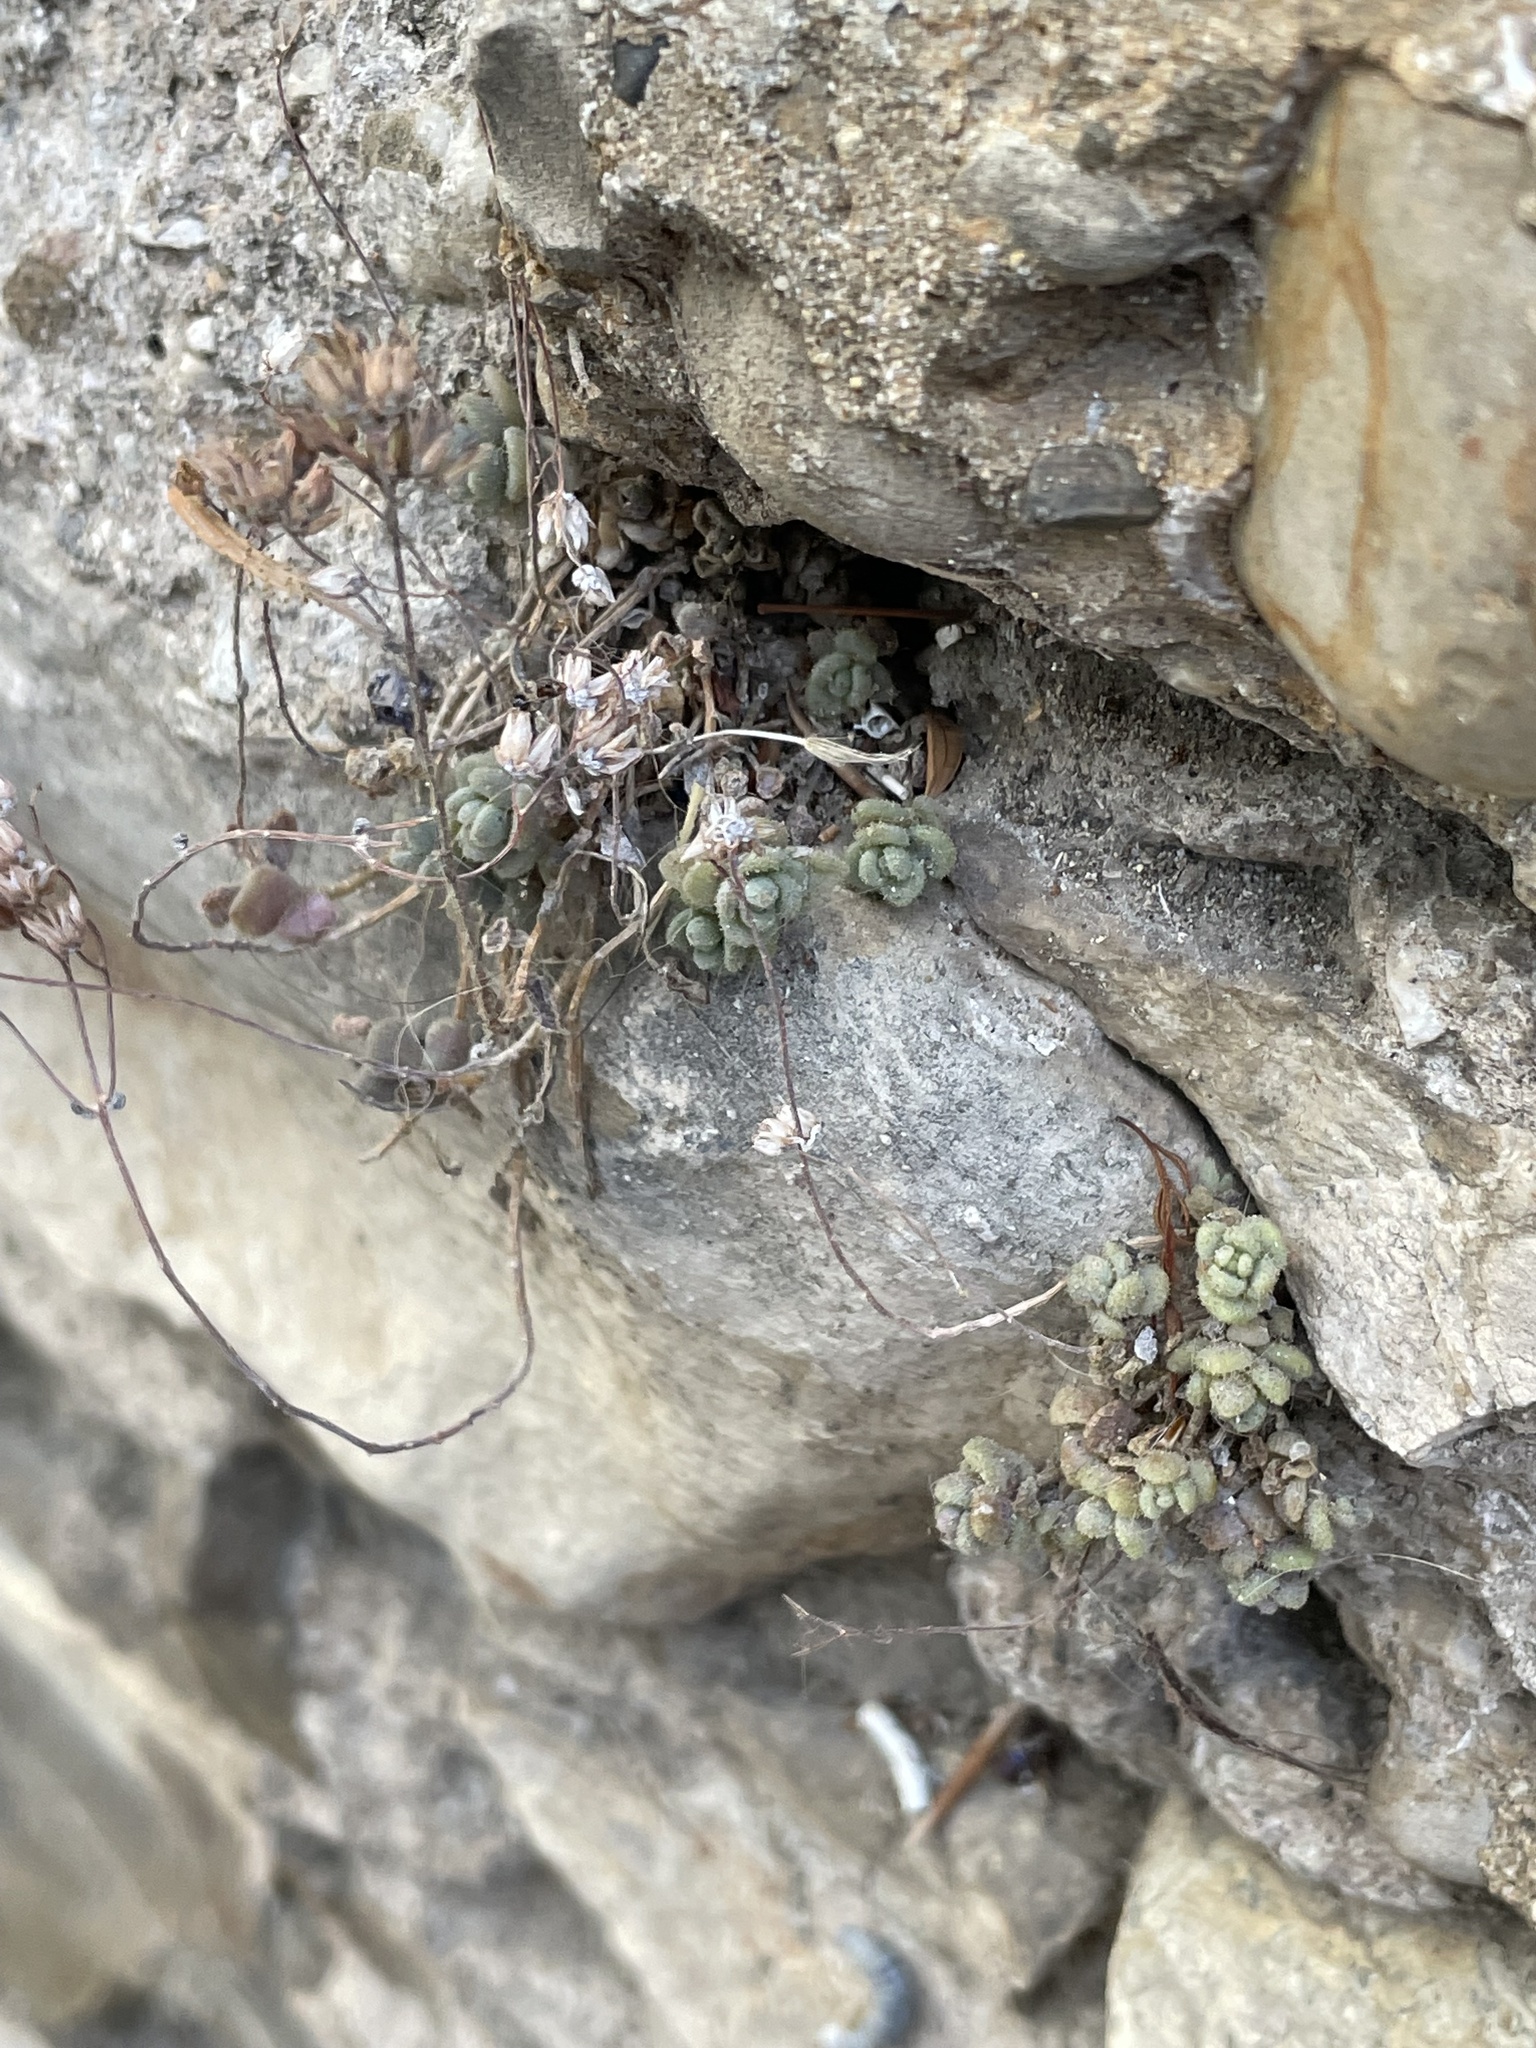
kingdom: Plantae
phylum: Tracheophyta
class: Magnoliopsida
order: Saxifragales
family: Crassulaceae
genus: Sedum
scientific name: Sedum dasyphyllum
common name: Thick-leaf stonecrop
